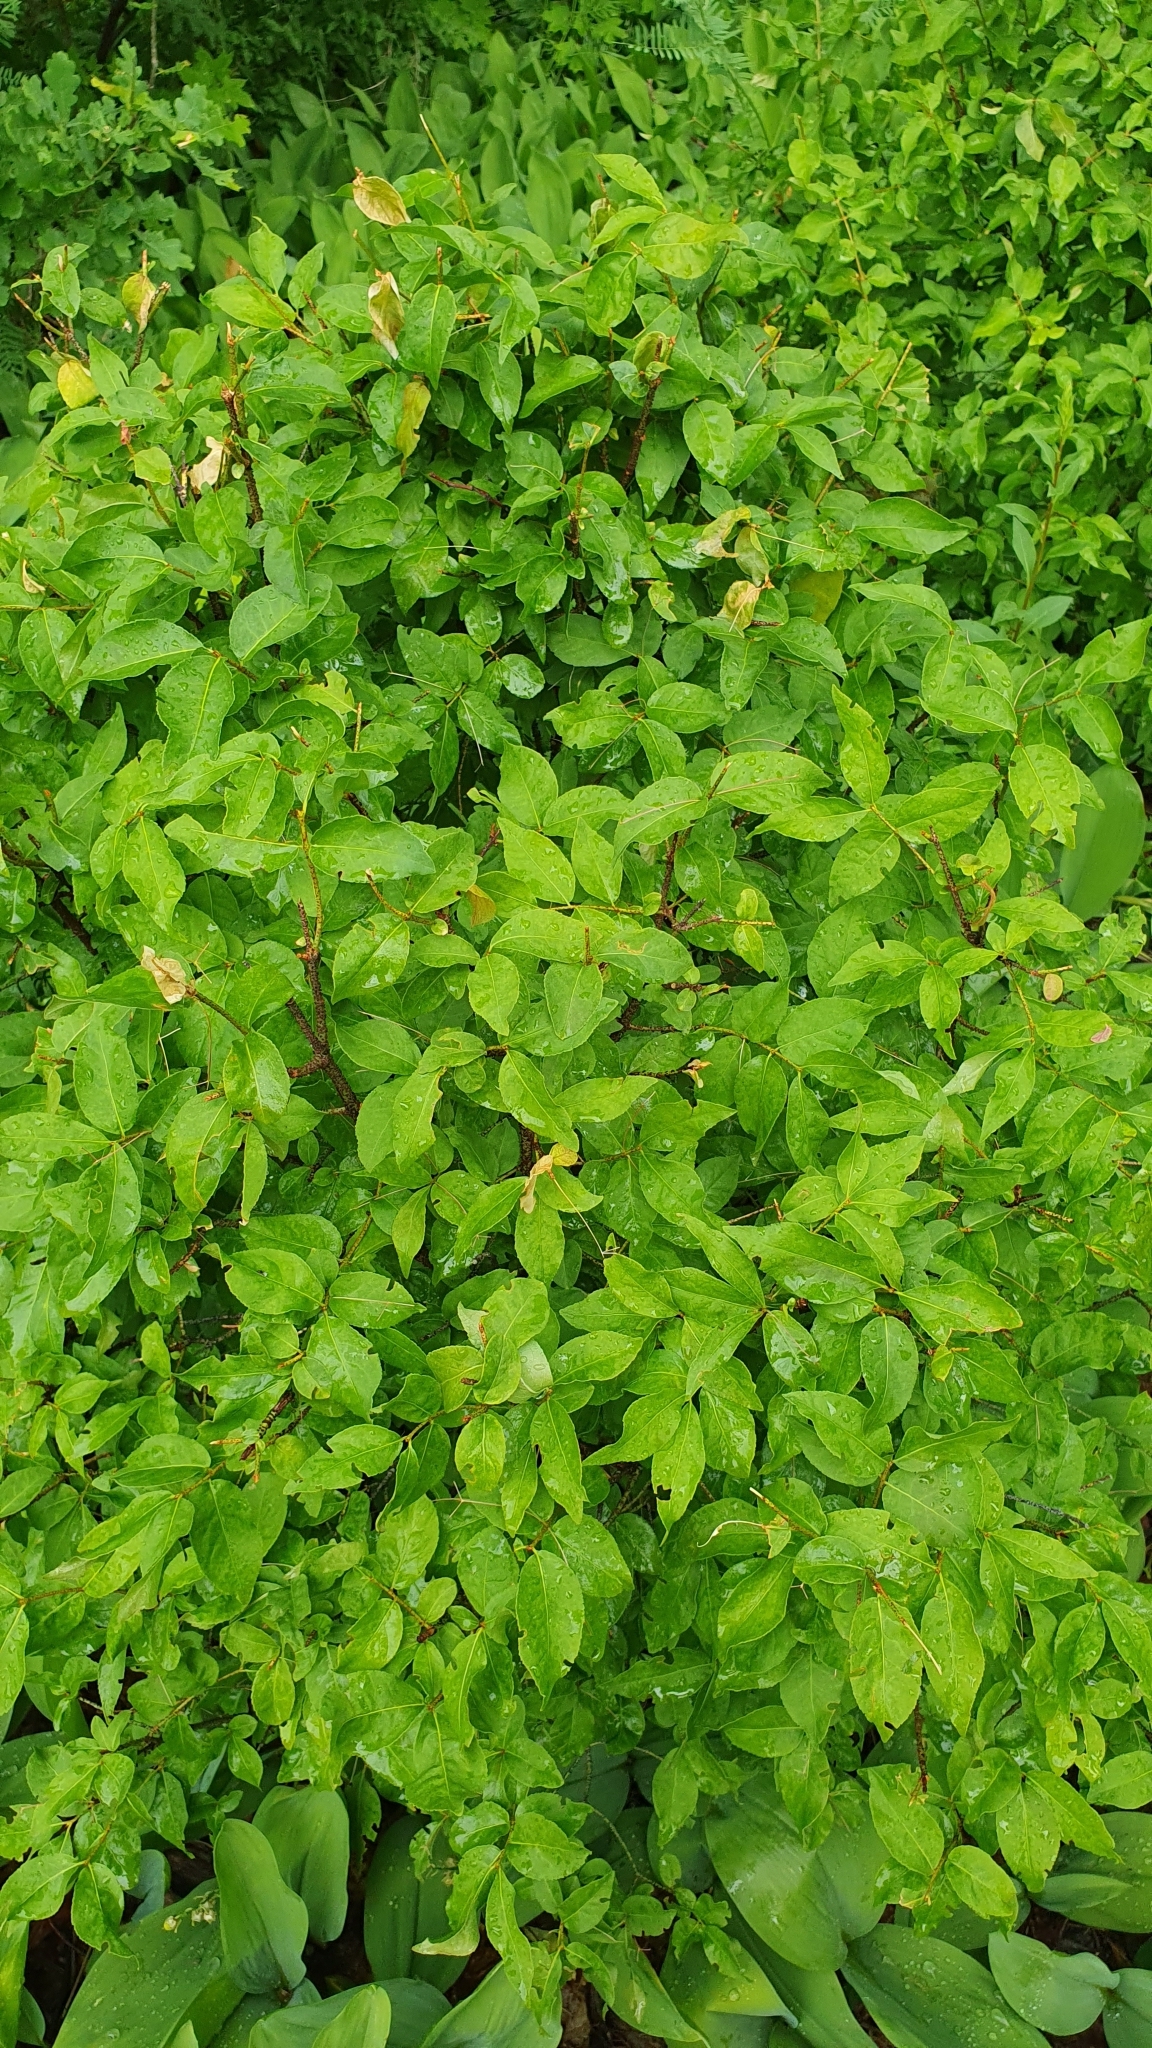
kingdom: Plantae
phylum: Tracheophyta
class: Magnoliopsida
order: Celastrales
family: Celastraceae
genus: Euonymus
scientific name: Euonymus verrucosus
